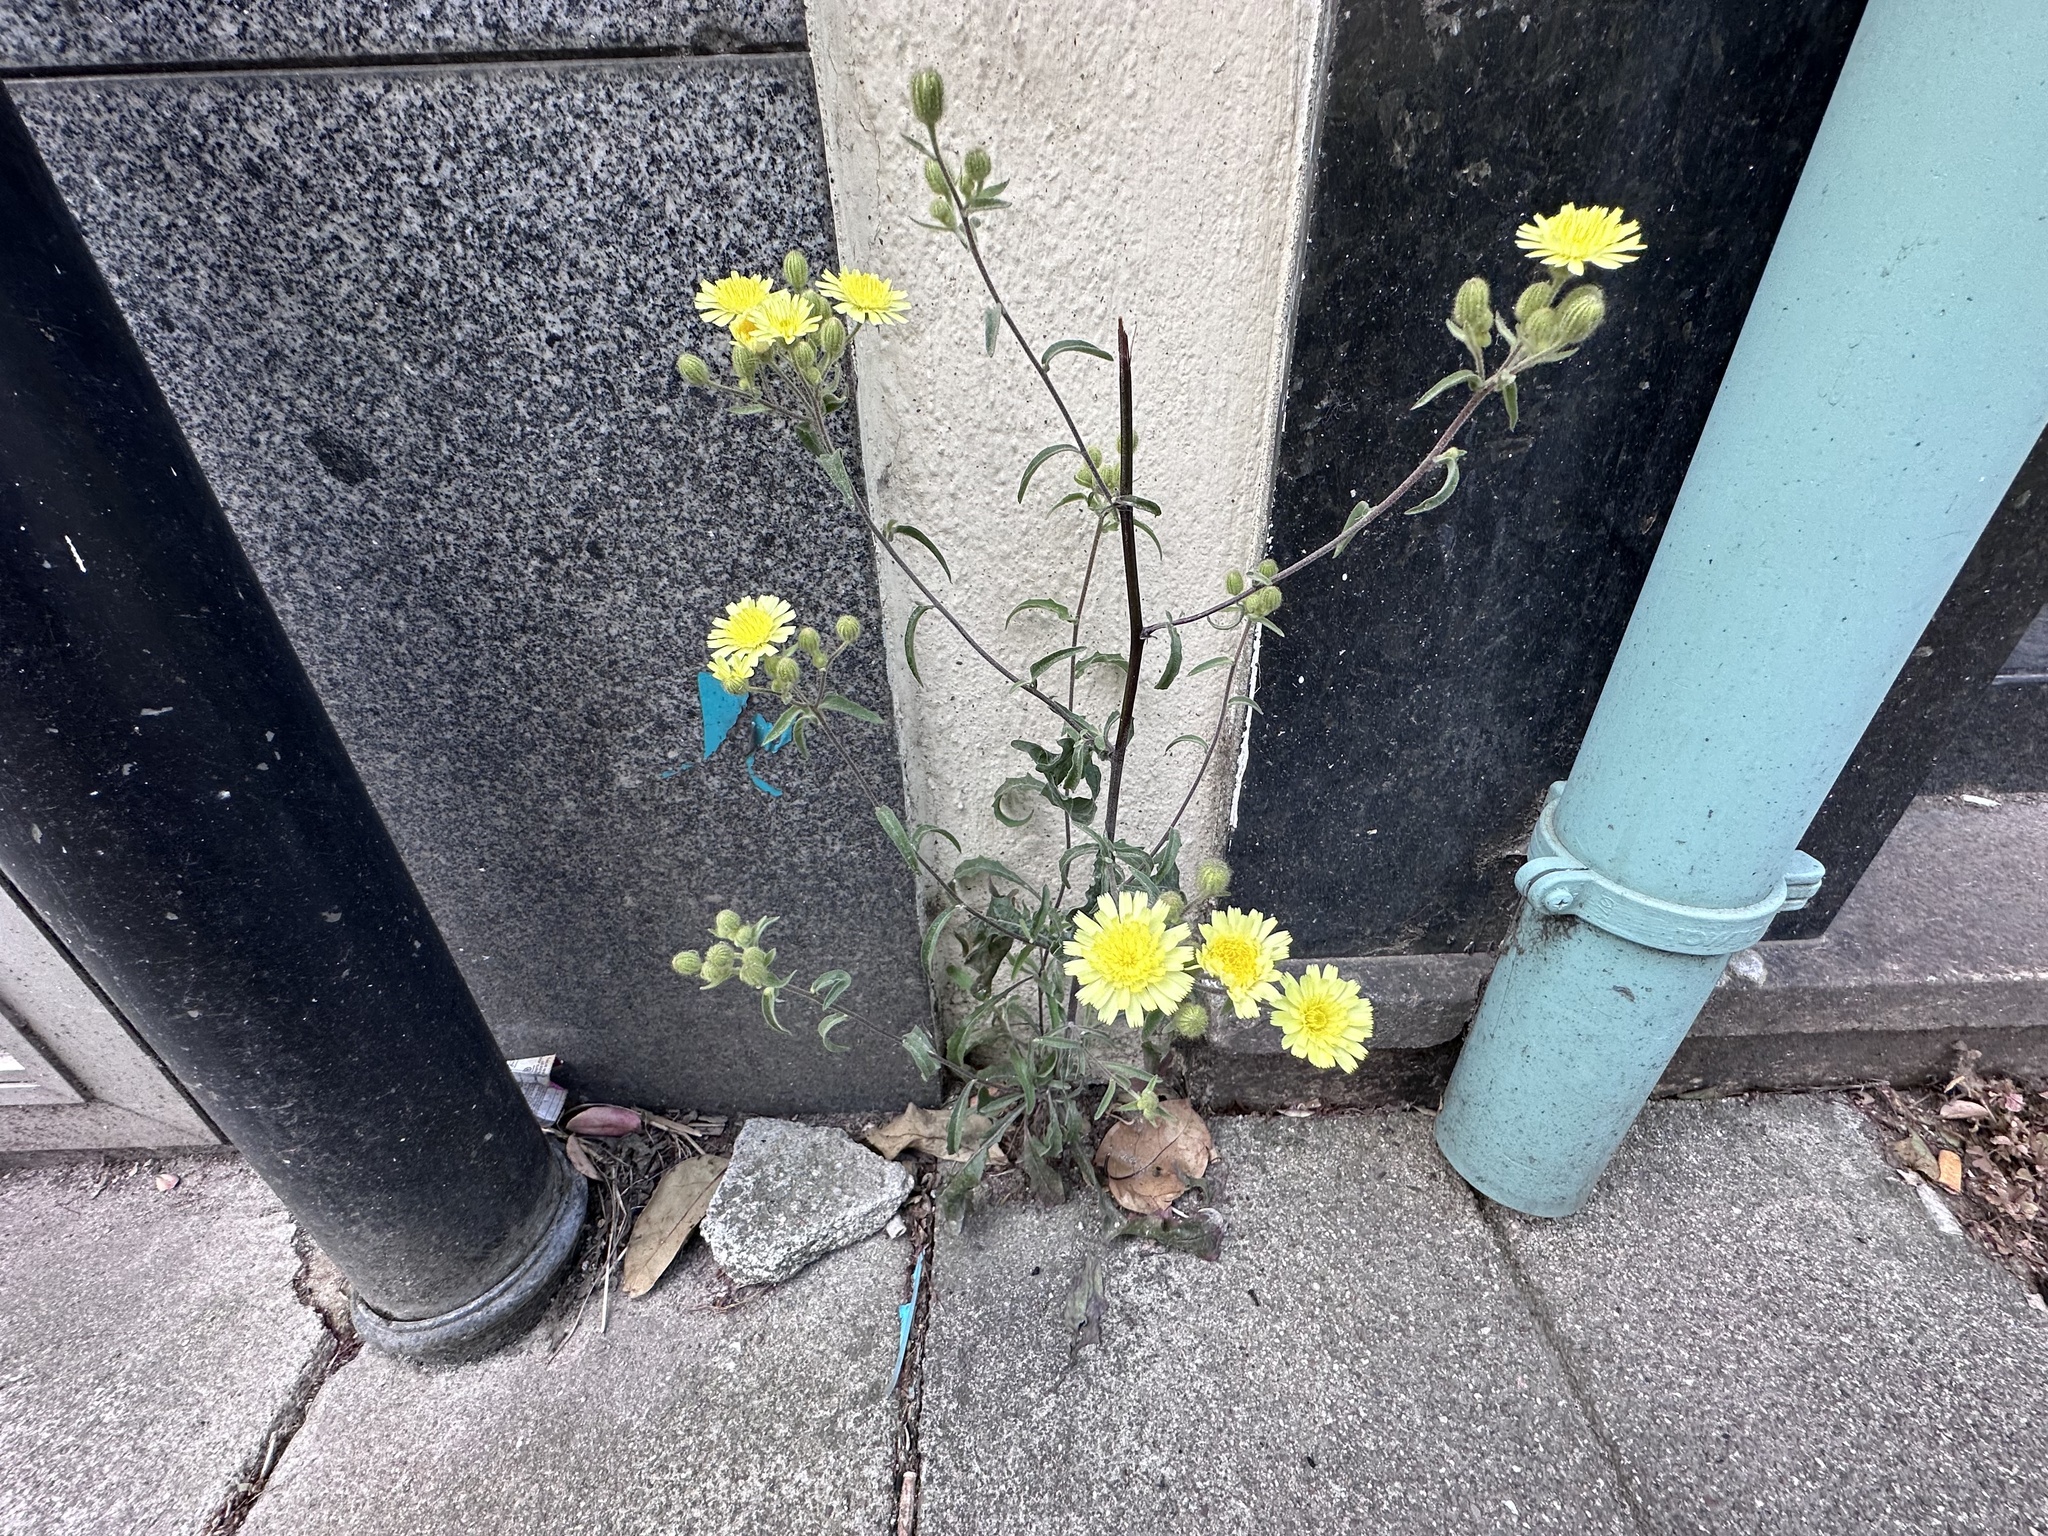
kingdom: Plantae
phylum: Tracheophyta
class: Magnoliopsida
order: Asterales
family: Asteraceae
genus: Andryala
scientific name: Andryala integrifolia
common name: Common andryala
